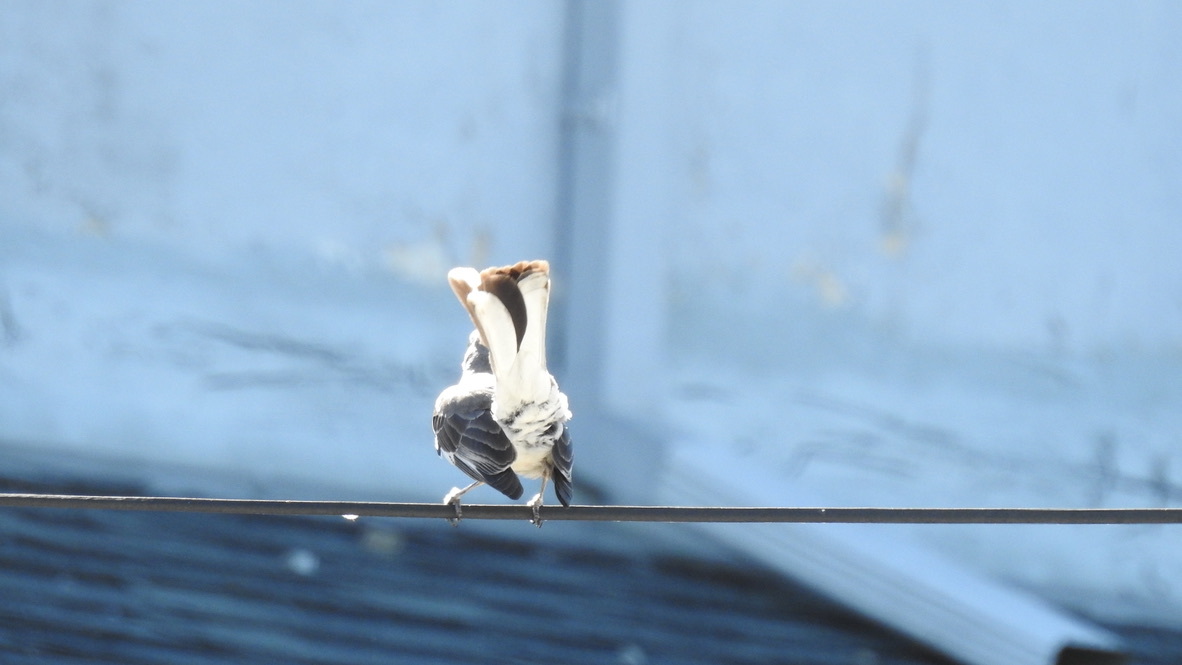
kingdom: Animalia
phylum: Chordata
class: Aves
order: Passeriformes
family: Mimidae
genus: Mimus
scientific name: Mimus polyglottos
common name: Northern mockingbird
